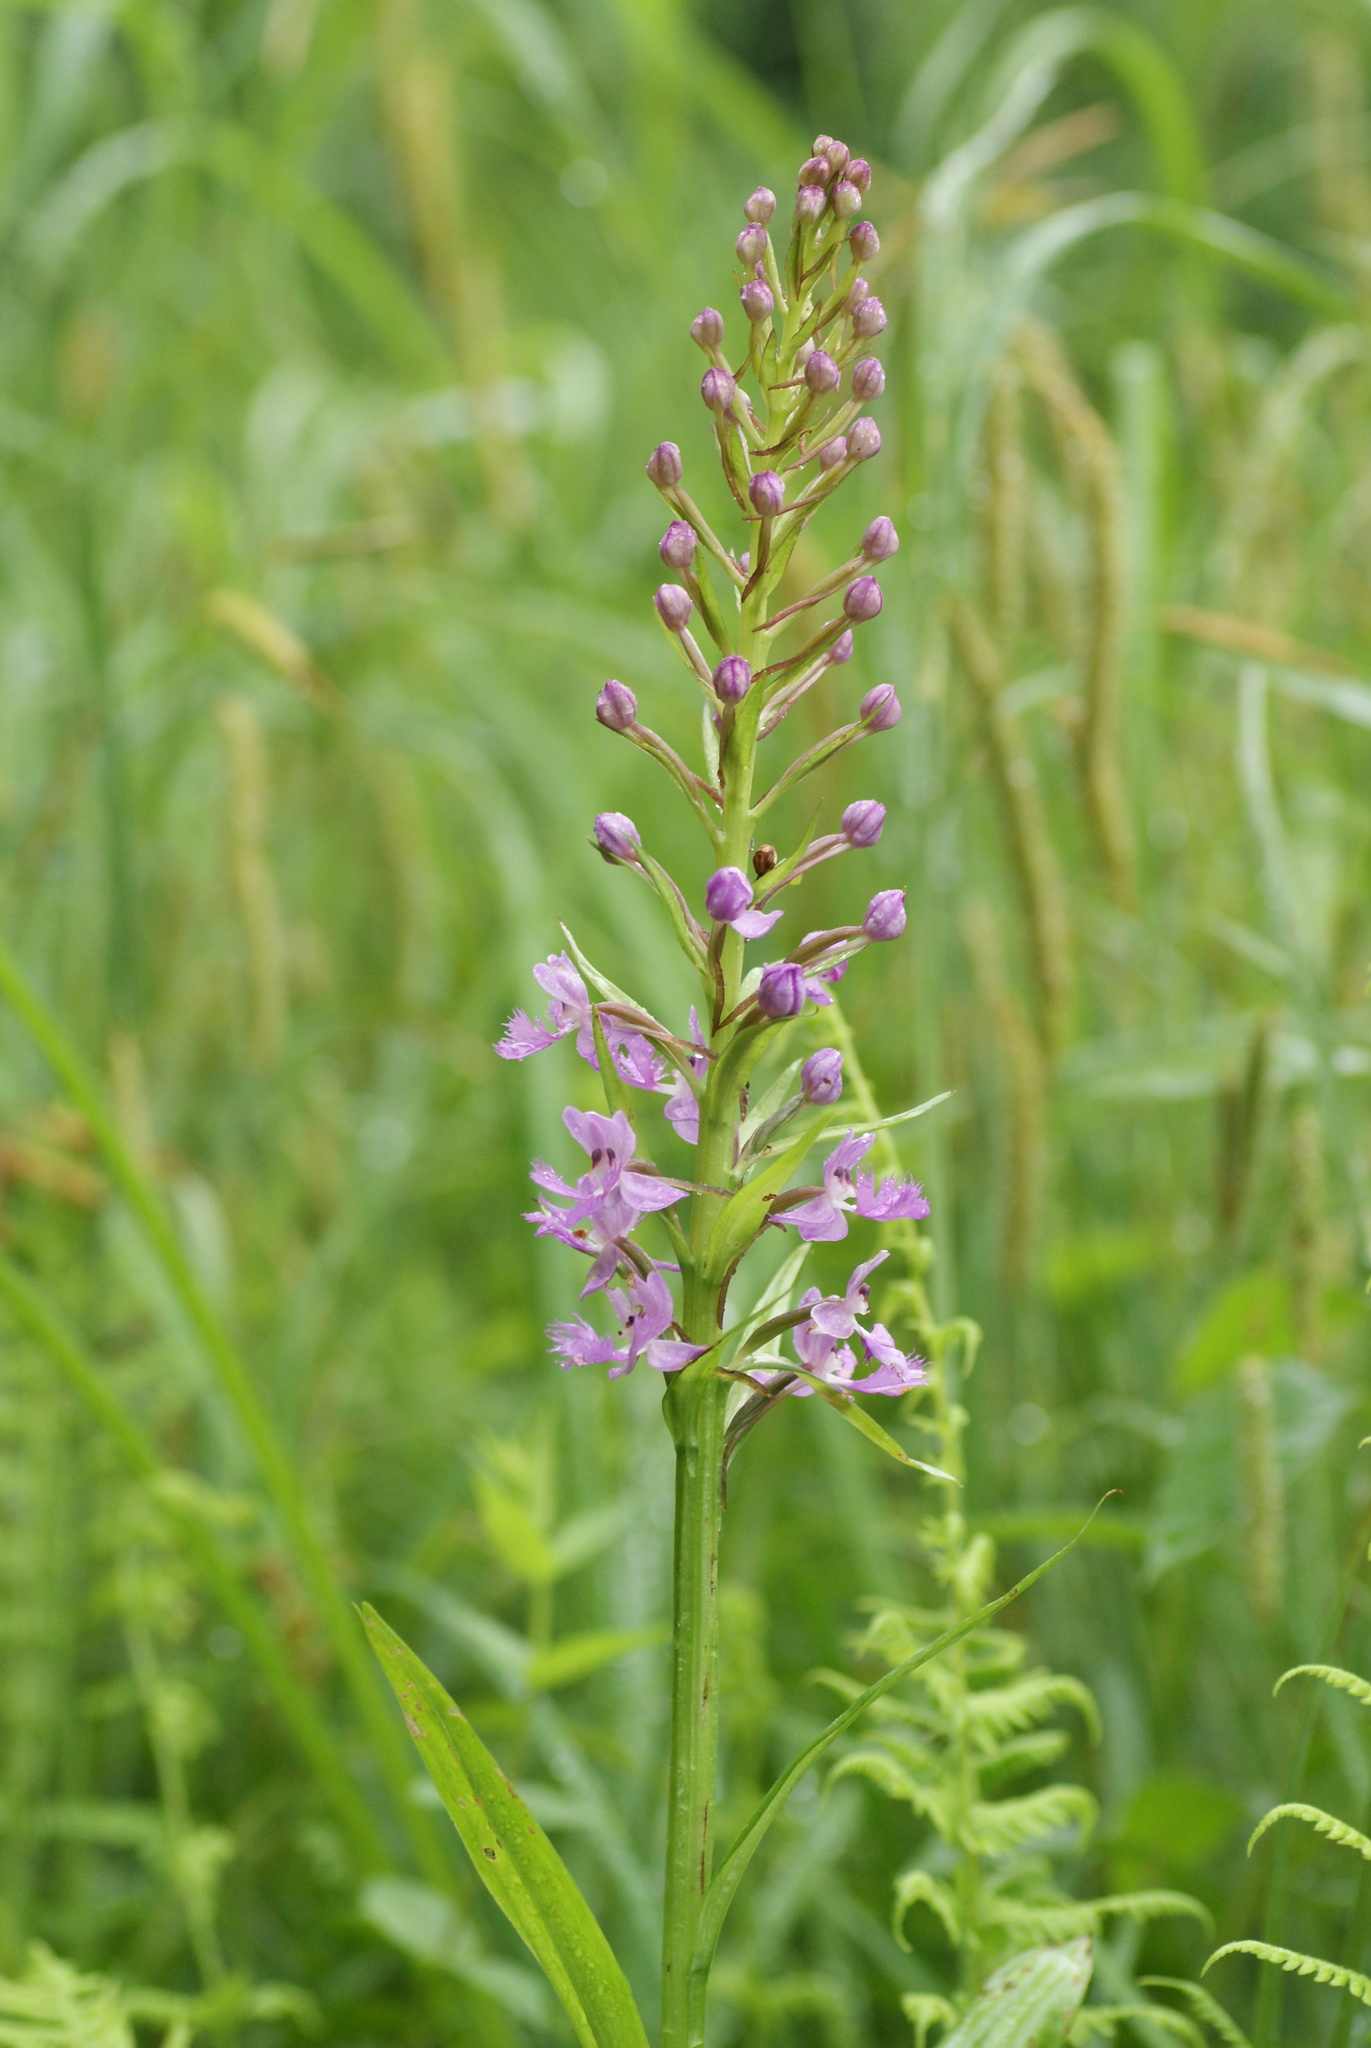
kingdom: Plantae
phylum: Tracheophyta
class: Liliopsida
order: Asparagales
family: Orchidaceae
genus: Platanthera
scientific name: Platanthera grandiflora
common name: Greater purple fringed orchid
